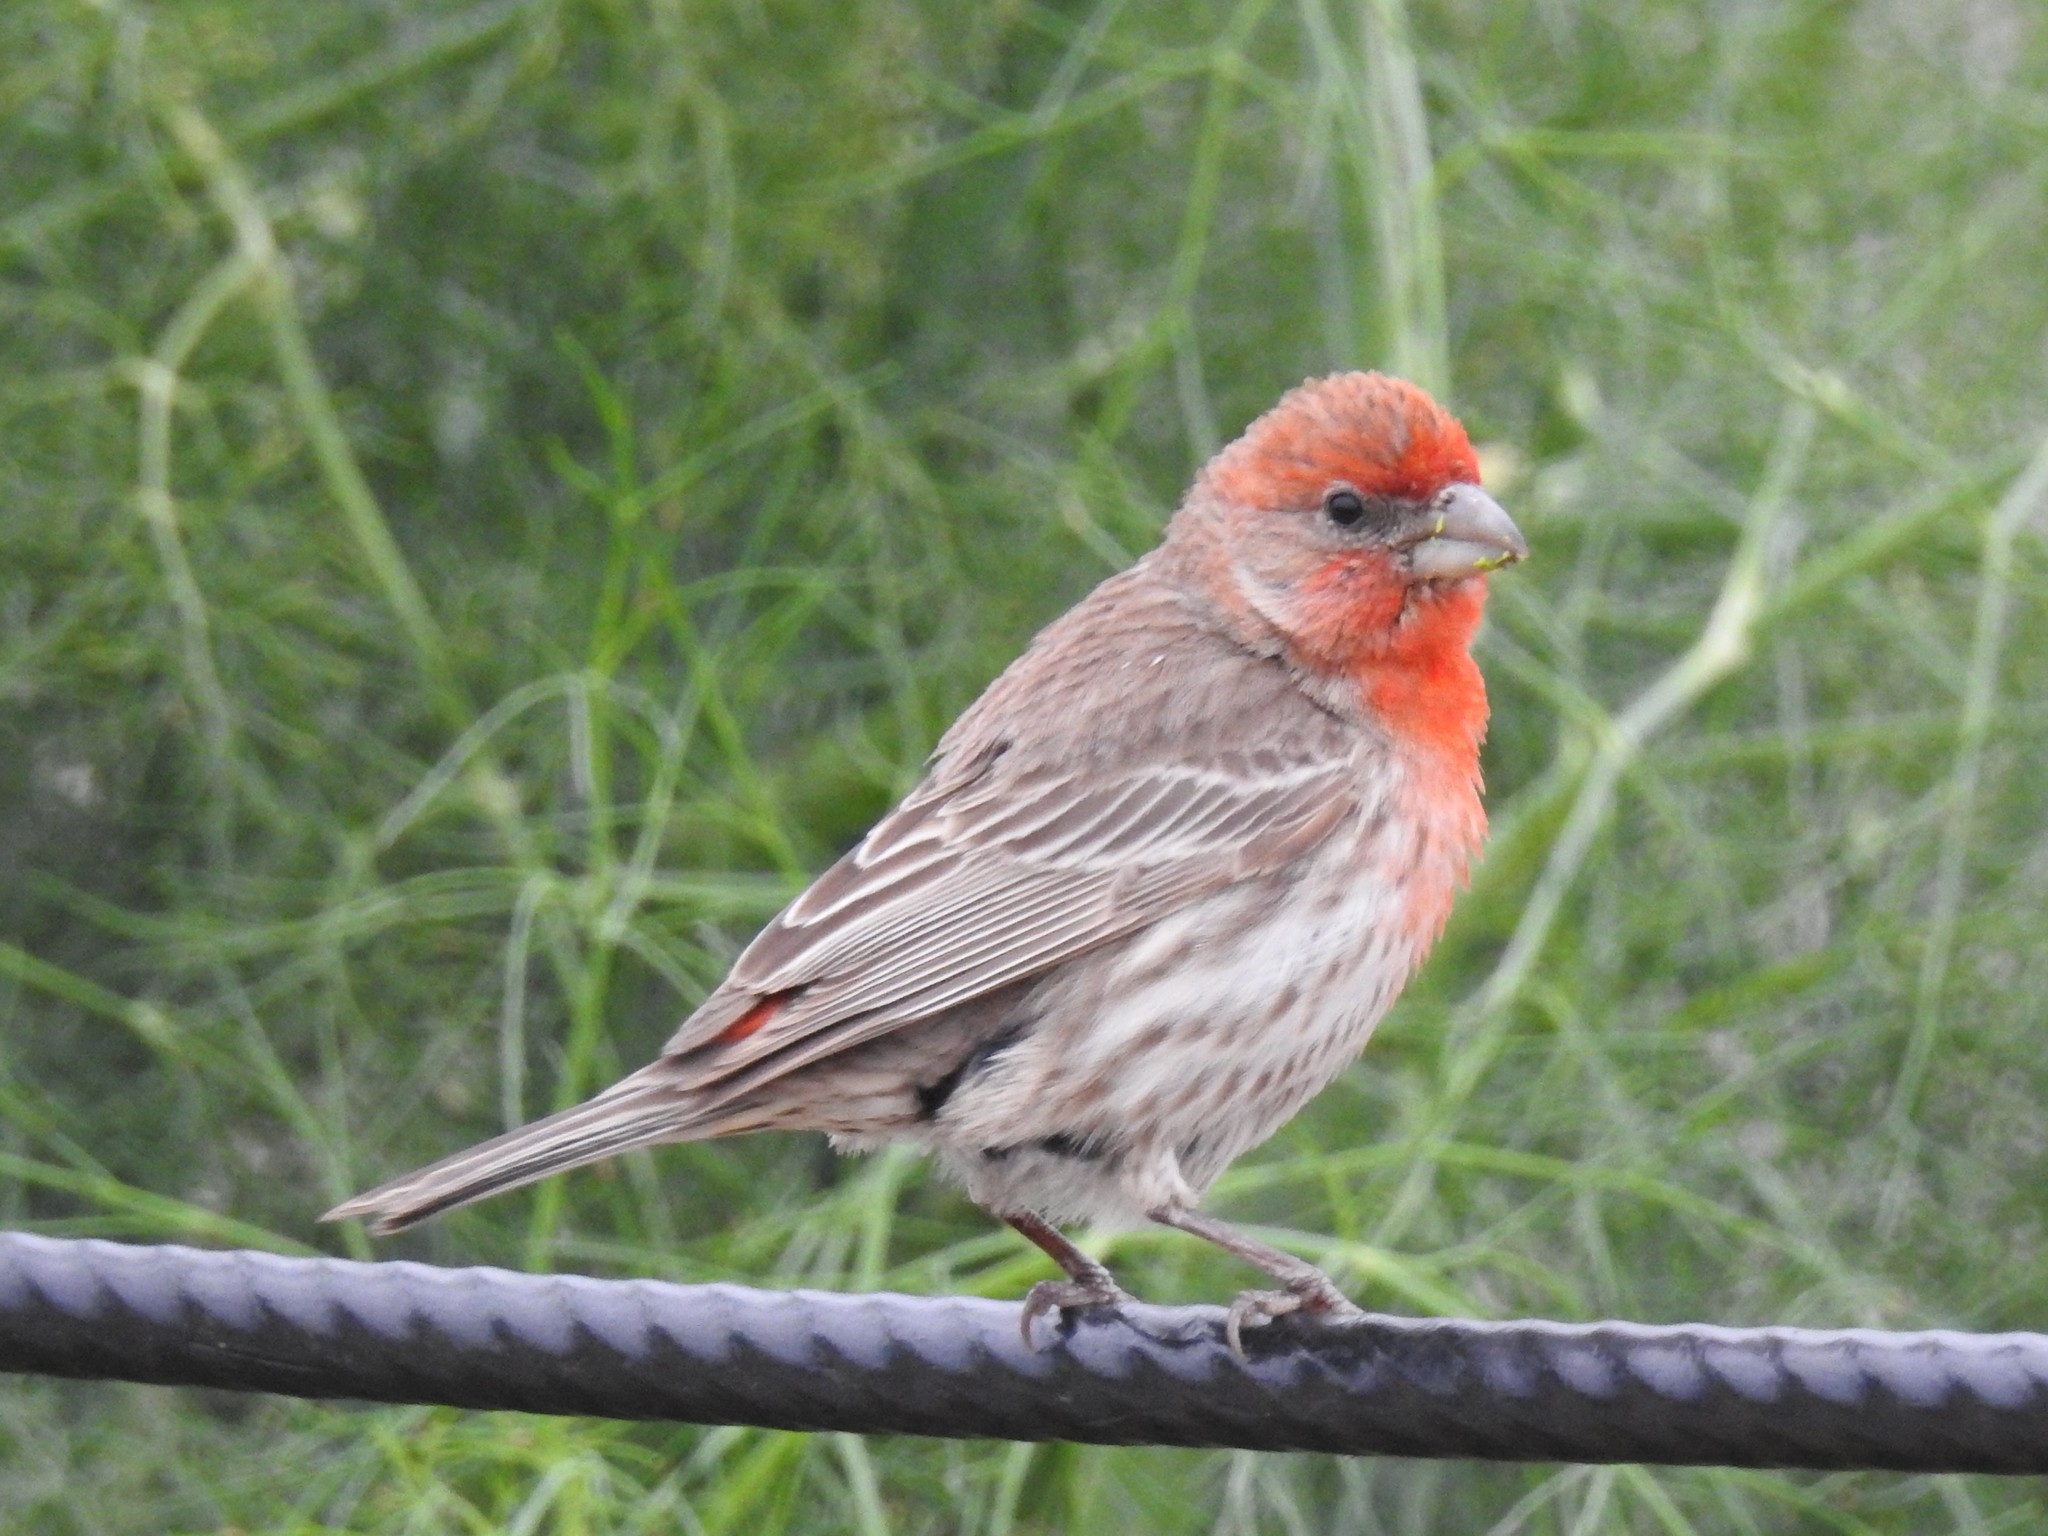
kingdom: Animalia
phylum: Chordata
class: Aves
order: Passeriformes
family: Fringillidae
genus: Haemorhous
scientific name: Haemorhous mexicanus
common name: House finch
